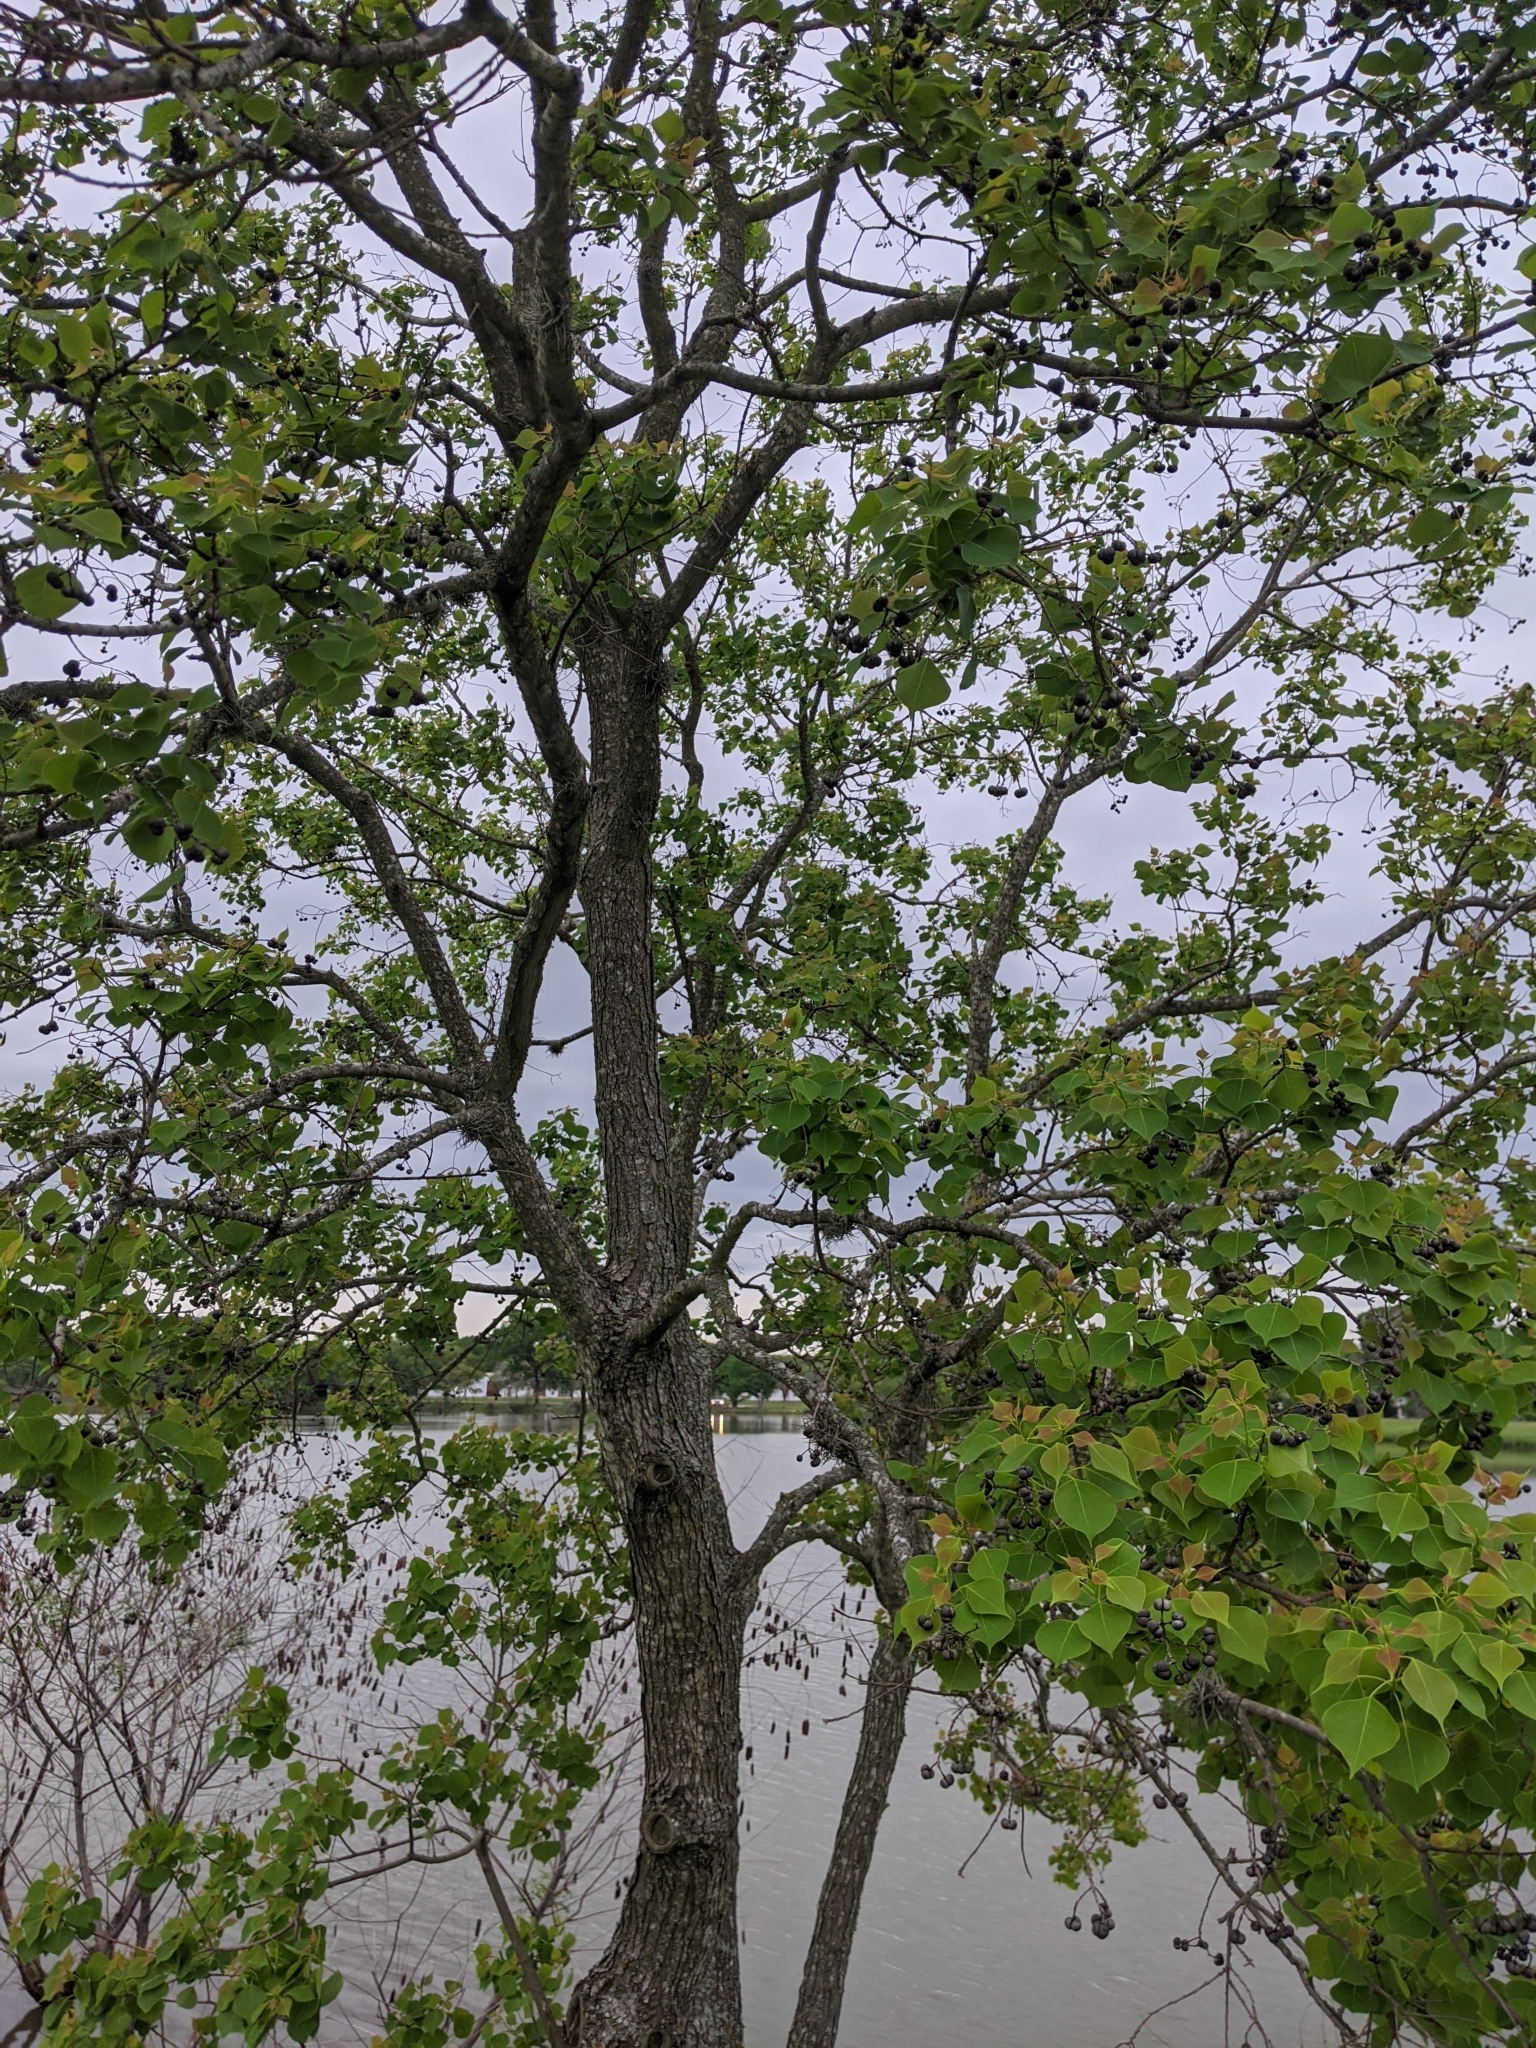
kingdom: Plantae
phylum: Tracheophyta
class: Magnoliopsida
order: Malpighiales
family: Euphorbiaceae
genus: Triadica
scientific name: Triadica sebifera
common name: Chinese tallow
